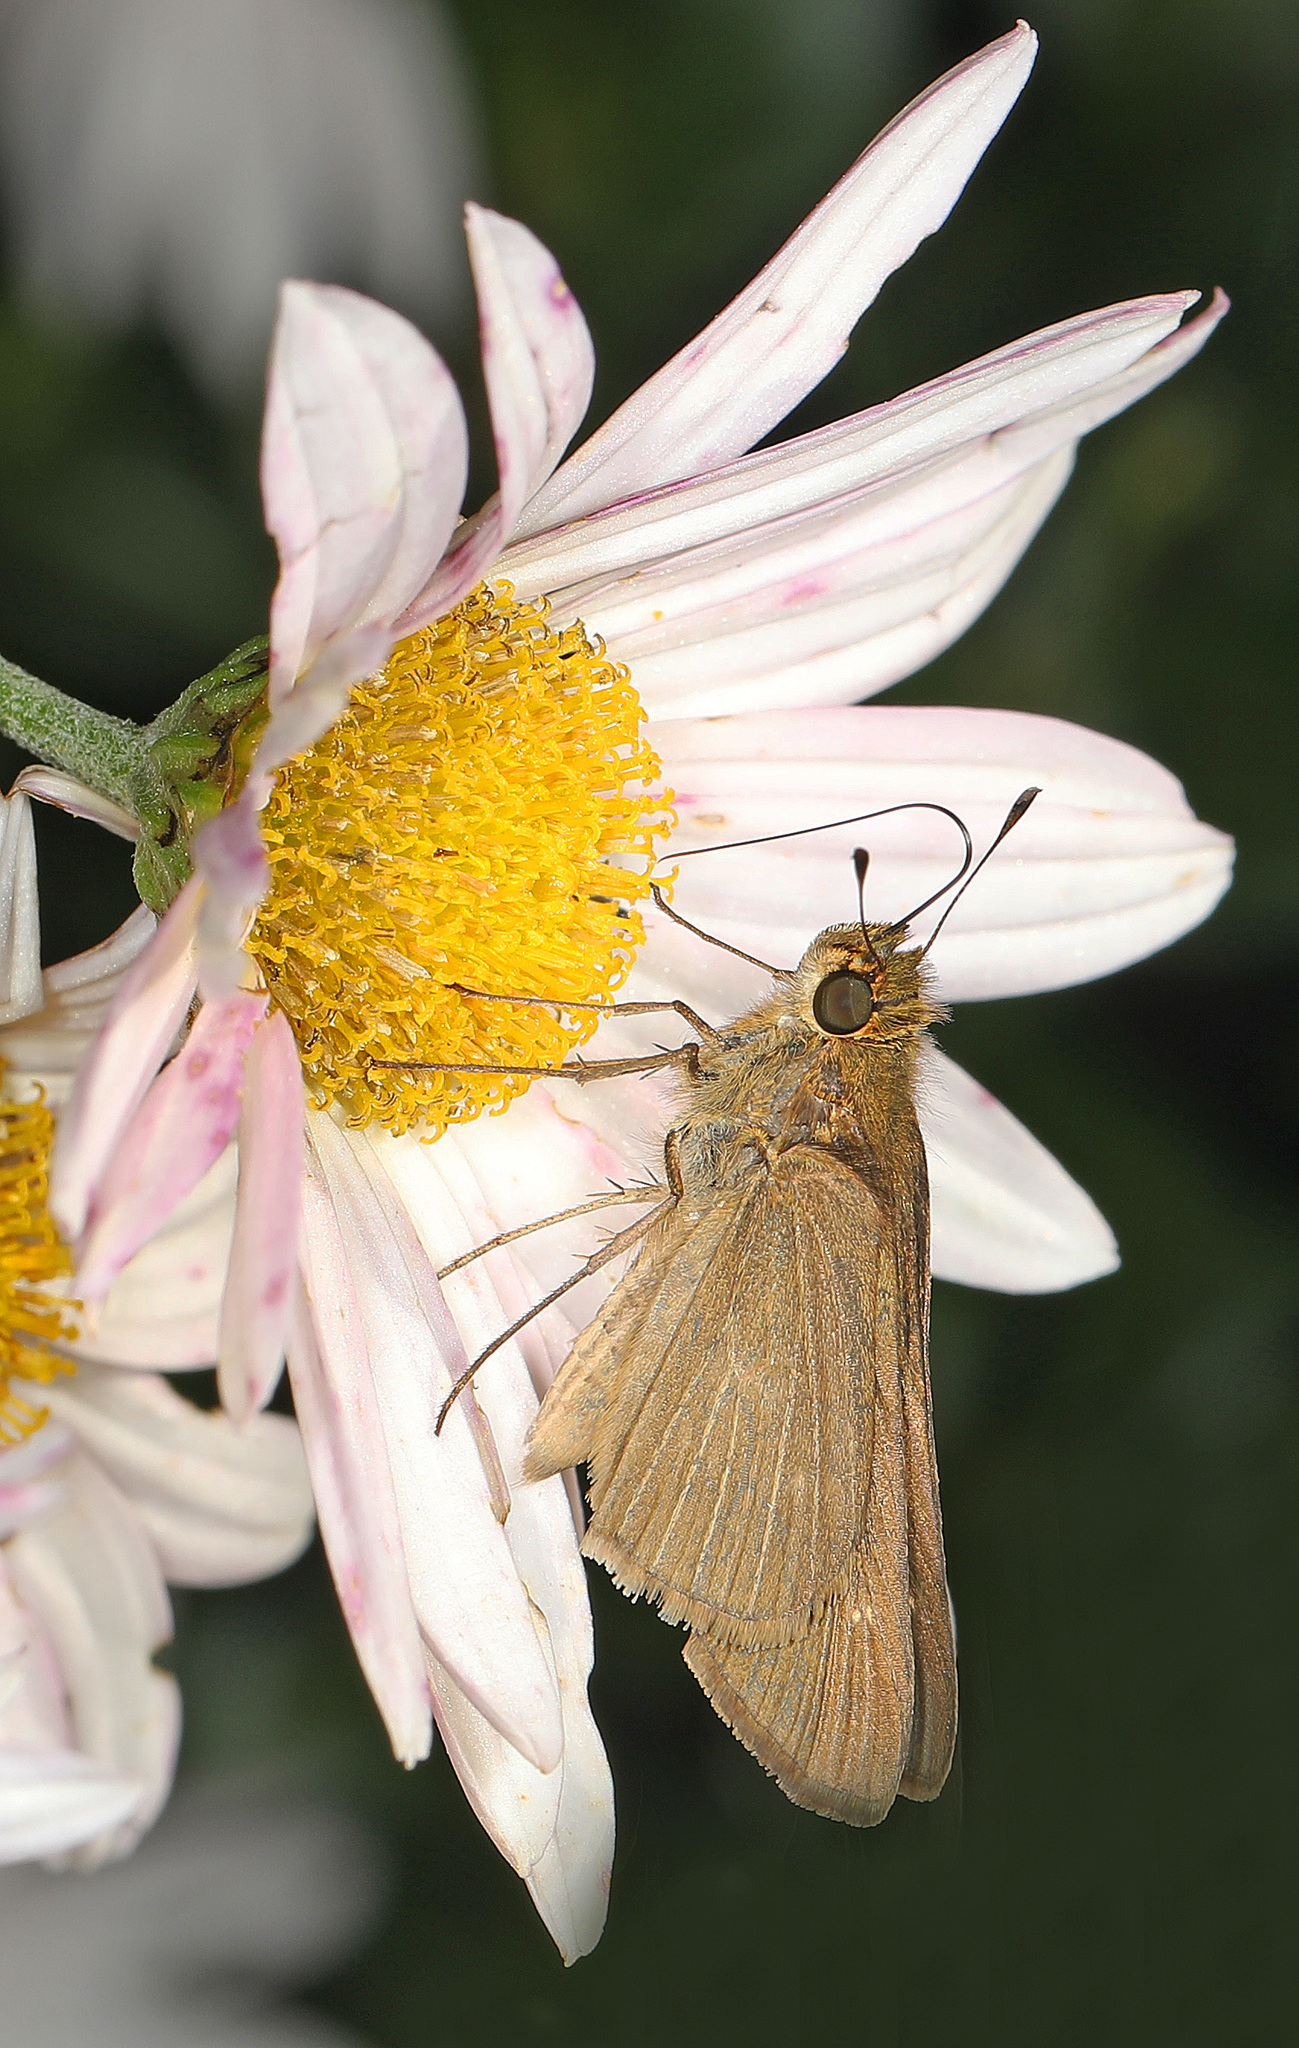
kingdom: Animalia
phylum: Arthropoda
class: Insecta
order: Lepidoptera
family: Hesperiidae
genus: Panoquina
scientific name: Panoquina ocola
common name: Ocola skipper
